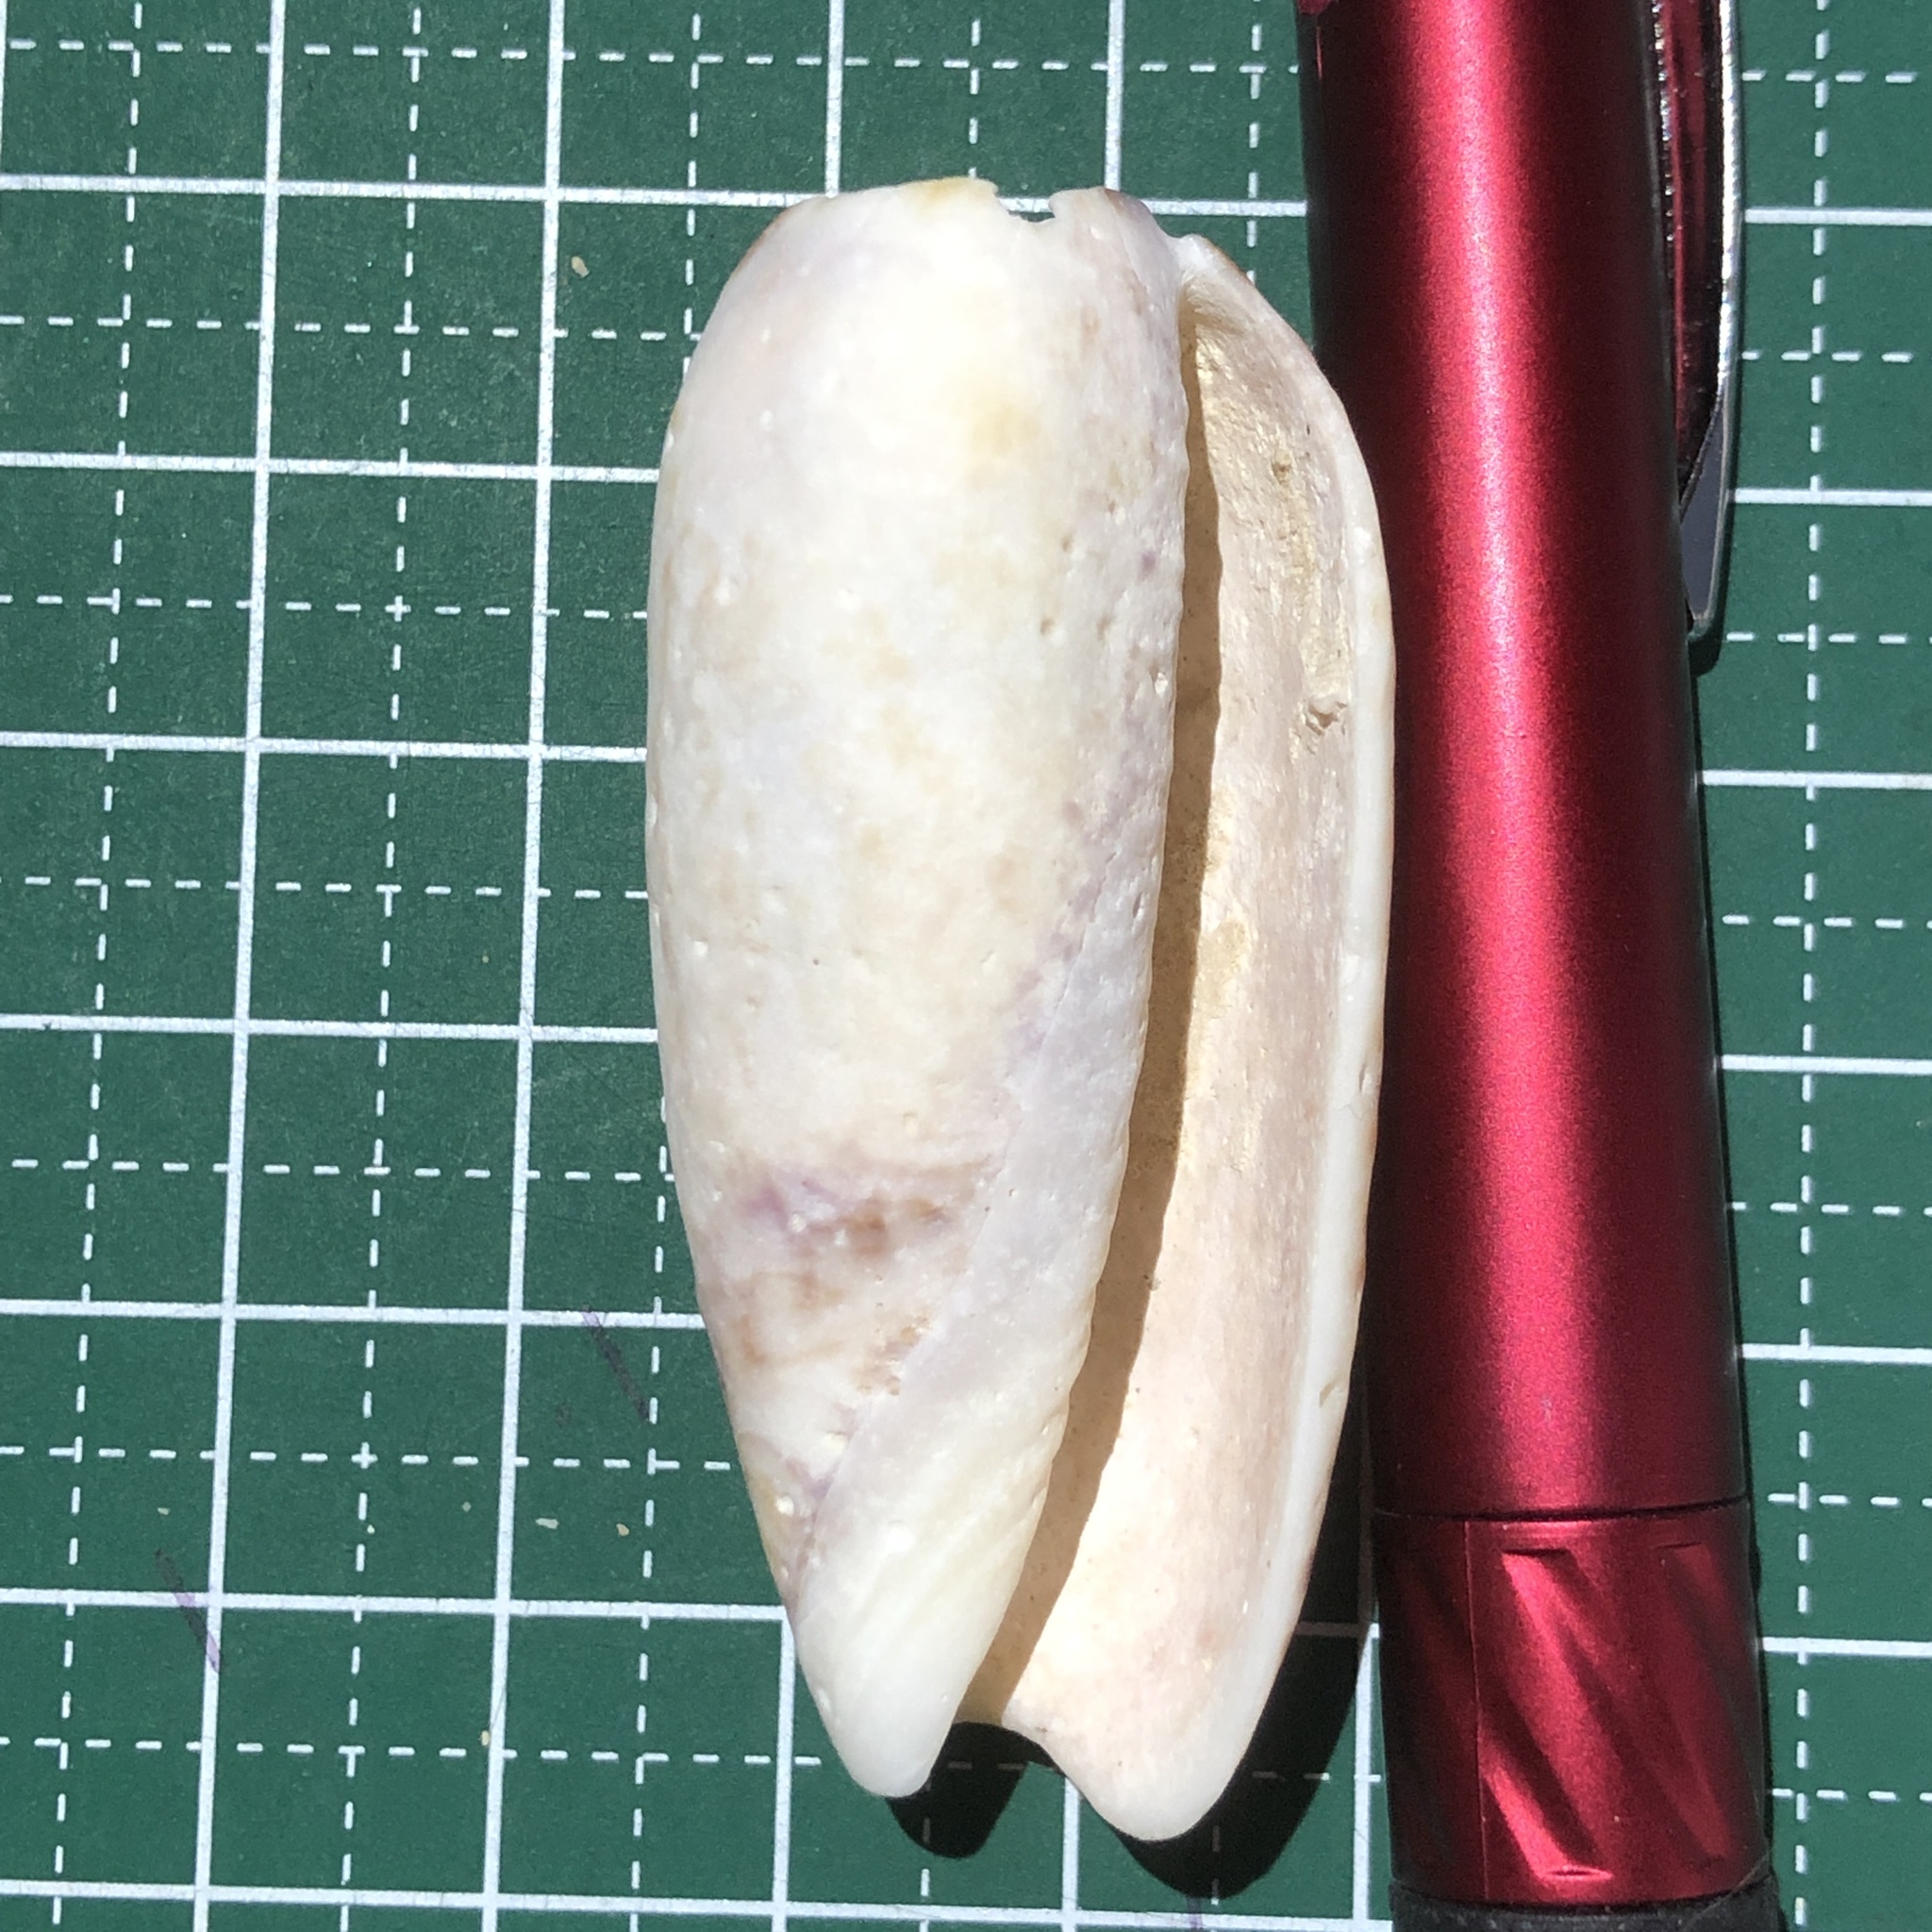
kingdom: Animalia
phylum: Mollusca
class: Gastropoda
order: Neogastropoda
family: Olividae
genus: Oliva
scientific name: Oliva miniacea
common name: Pacific common olive
